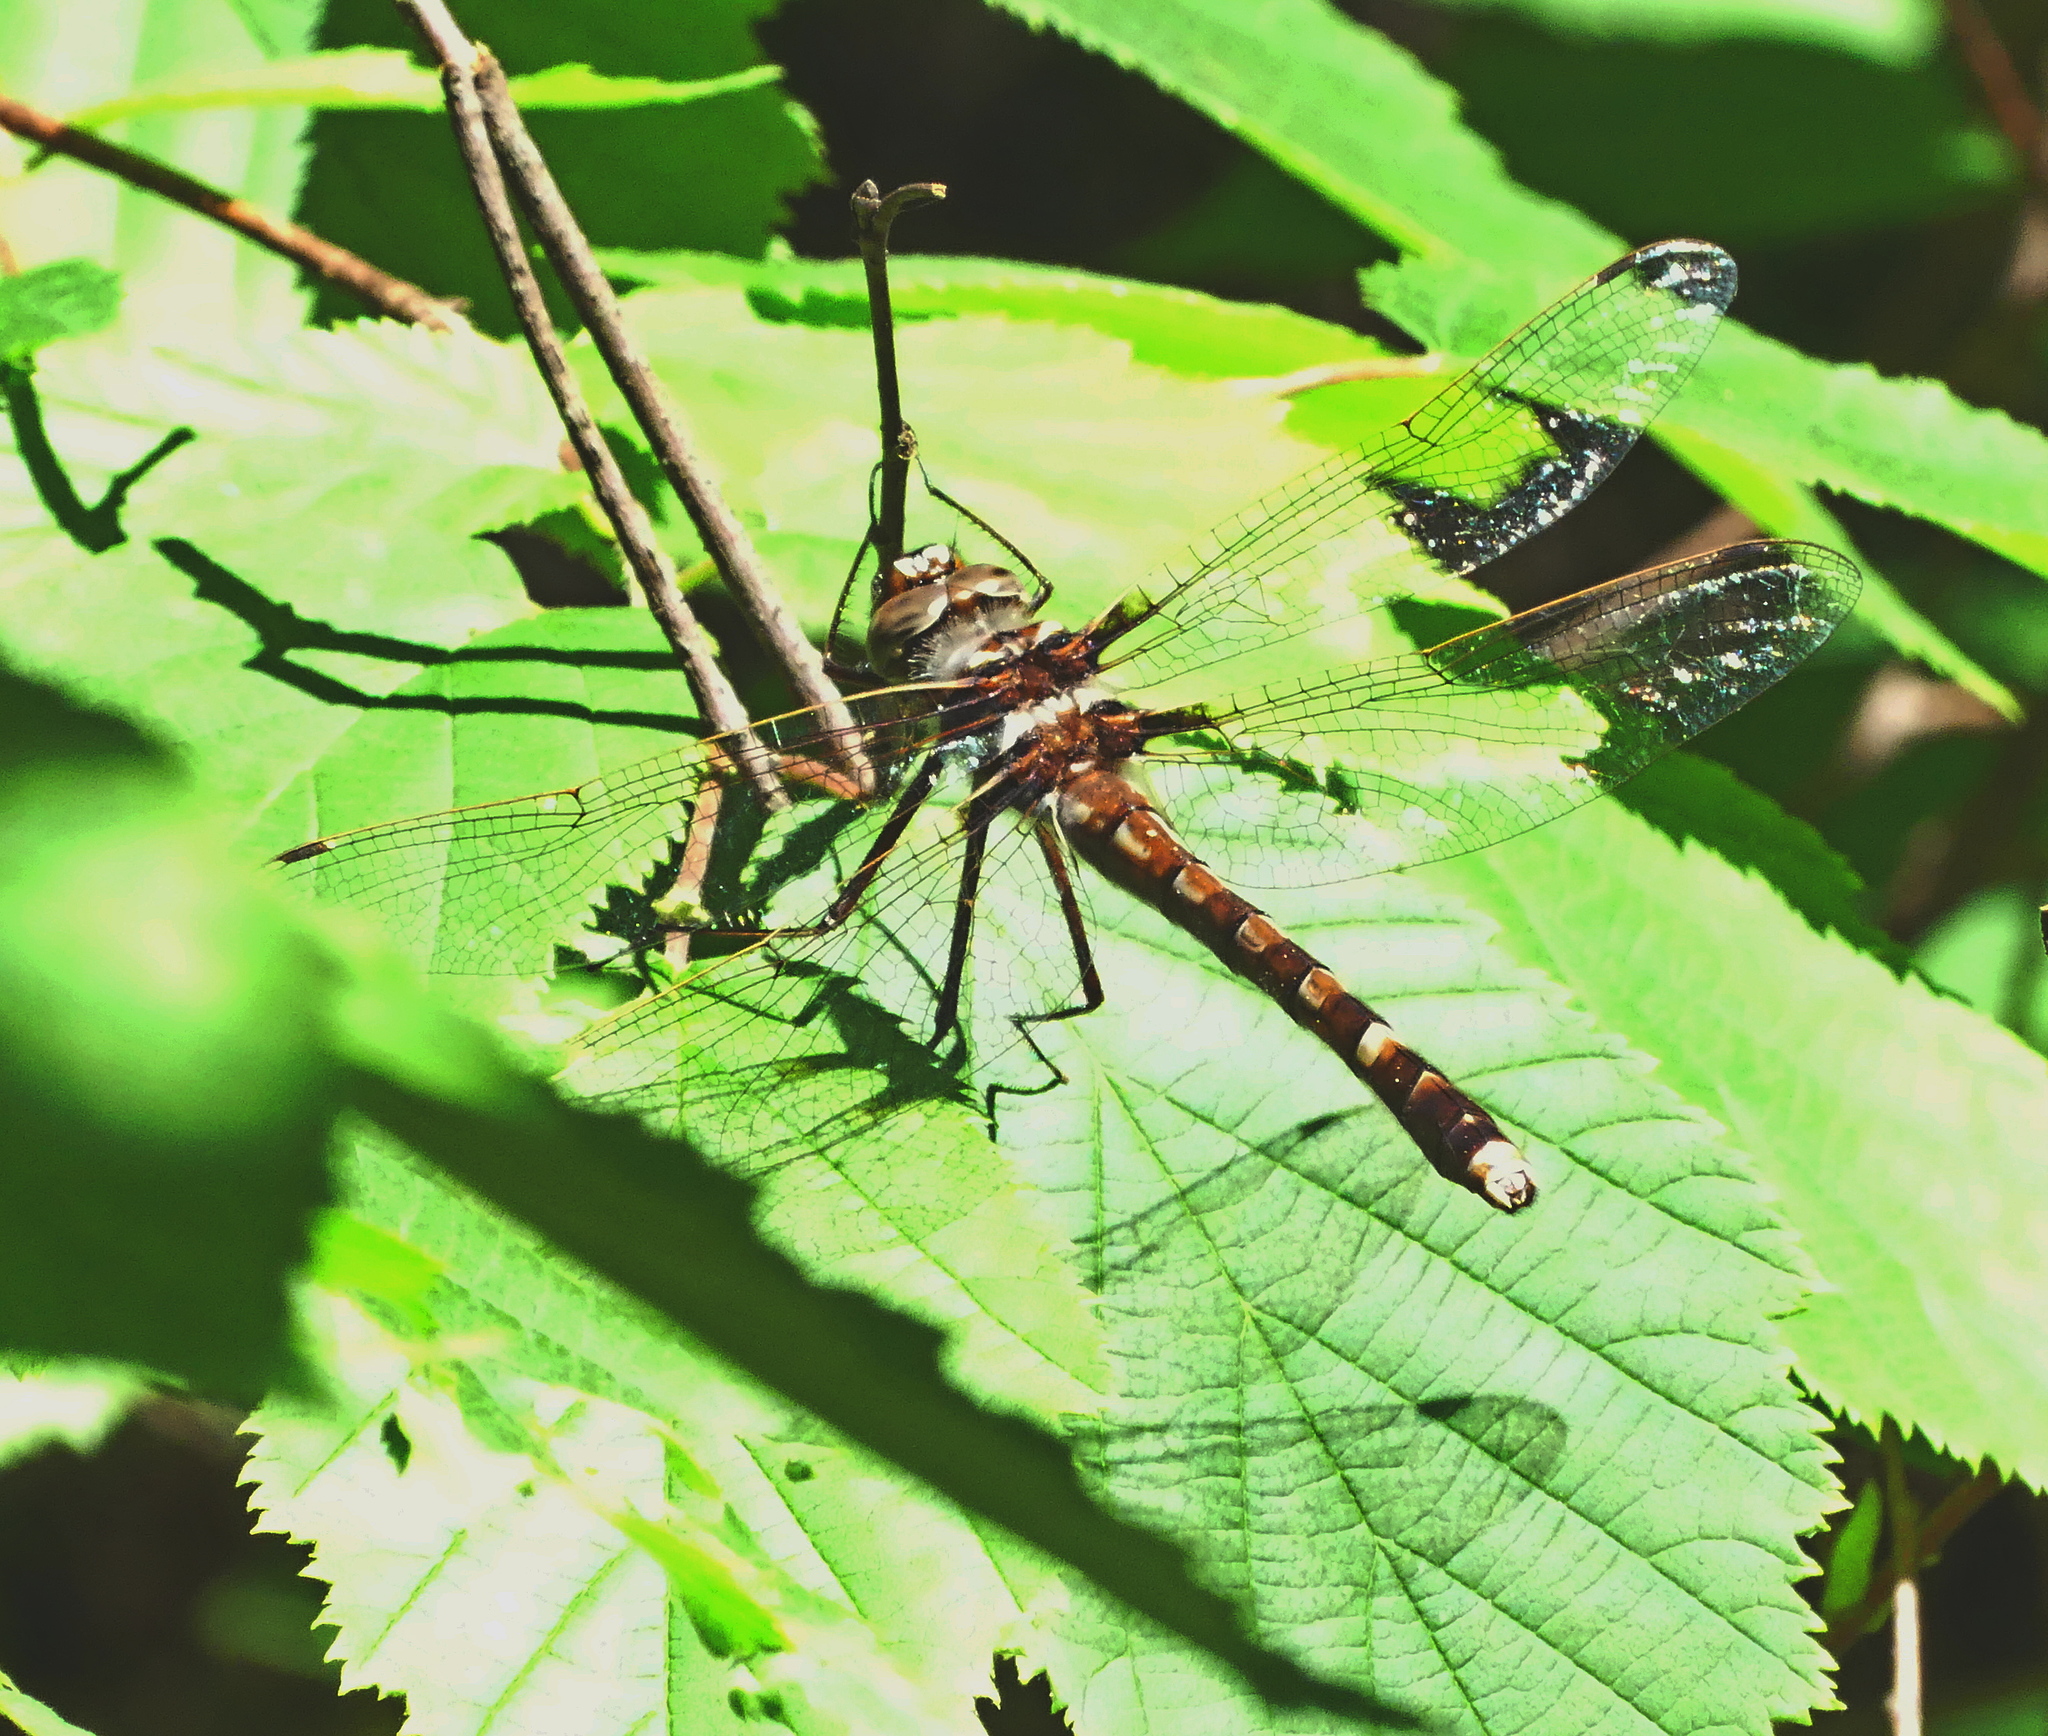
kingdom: Animalia
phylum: Arthropoda
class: Insecta
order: Odonata
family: Macromiidae
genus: Didymops
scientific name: Didymops transversa
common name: Stream cruiser
